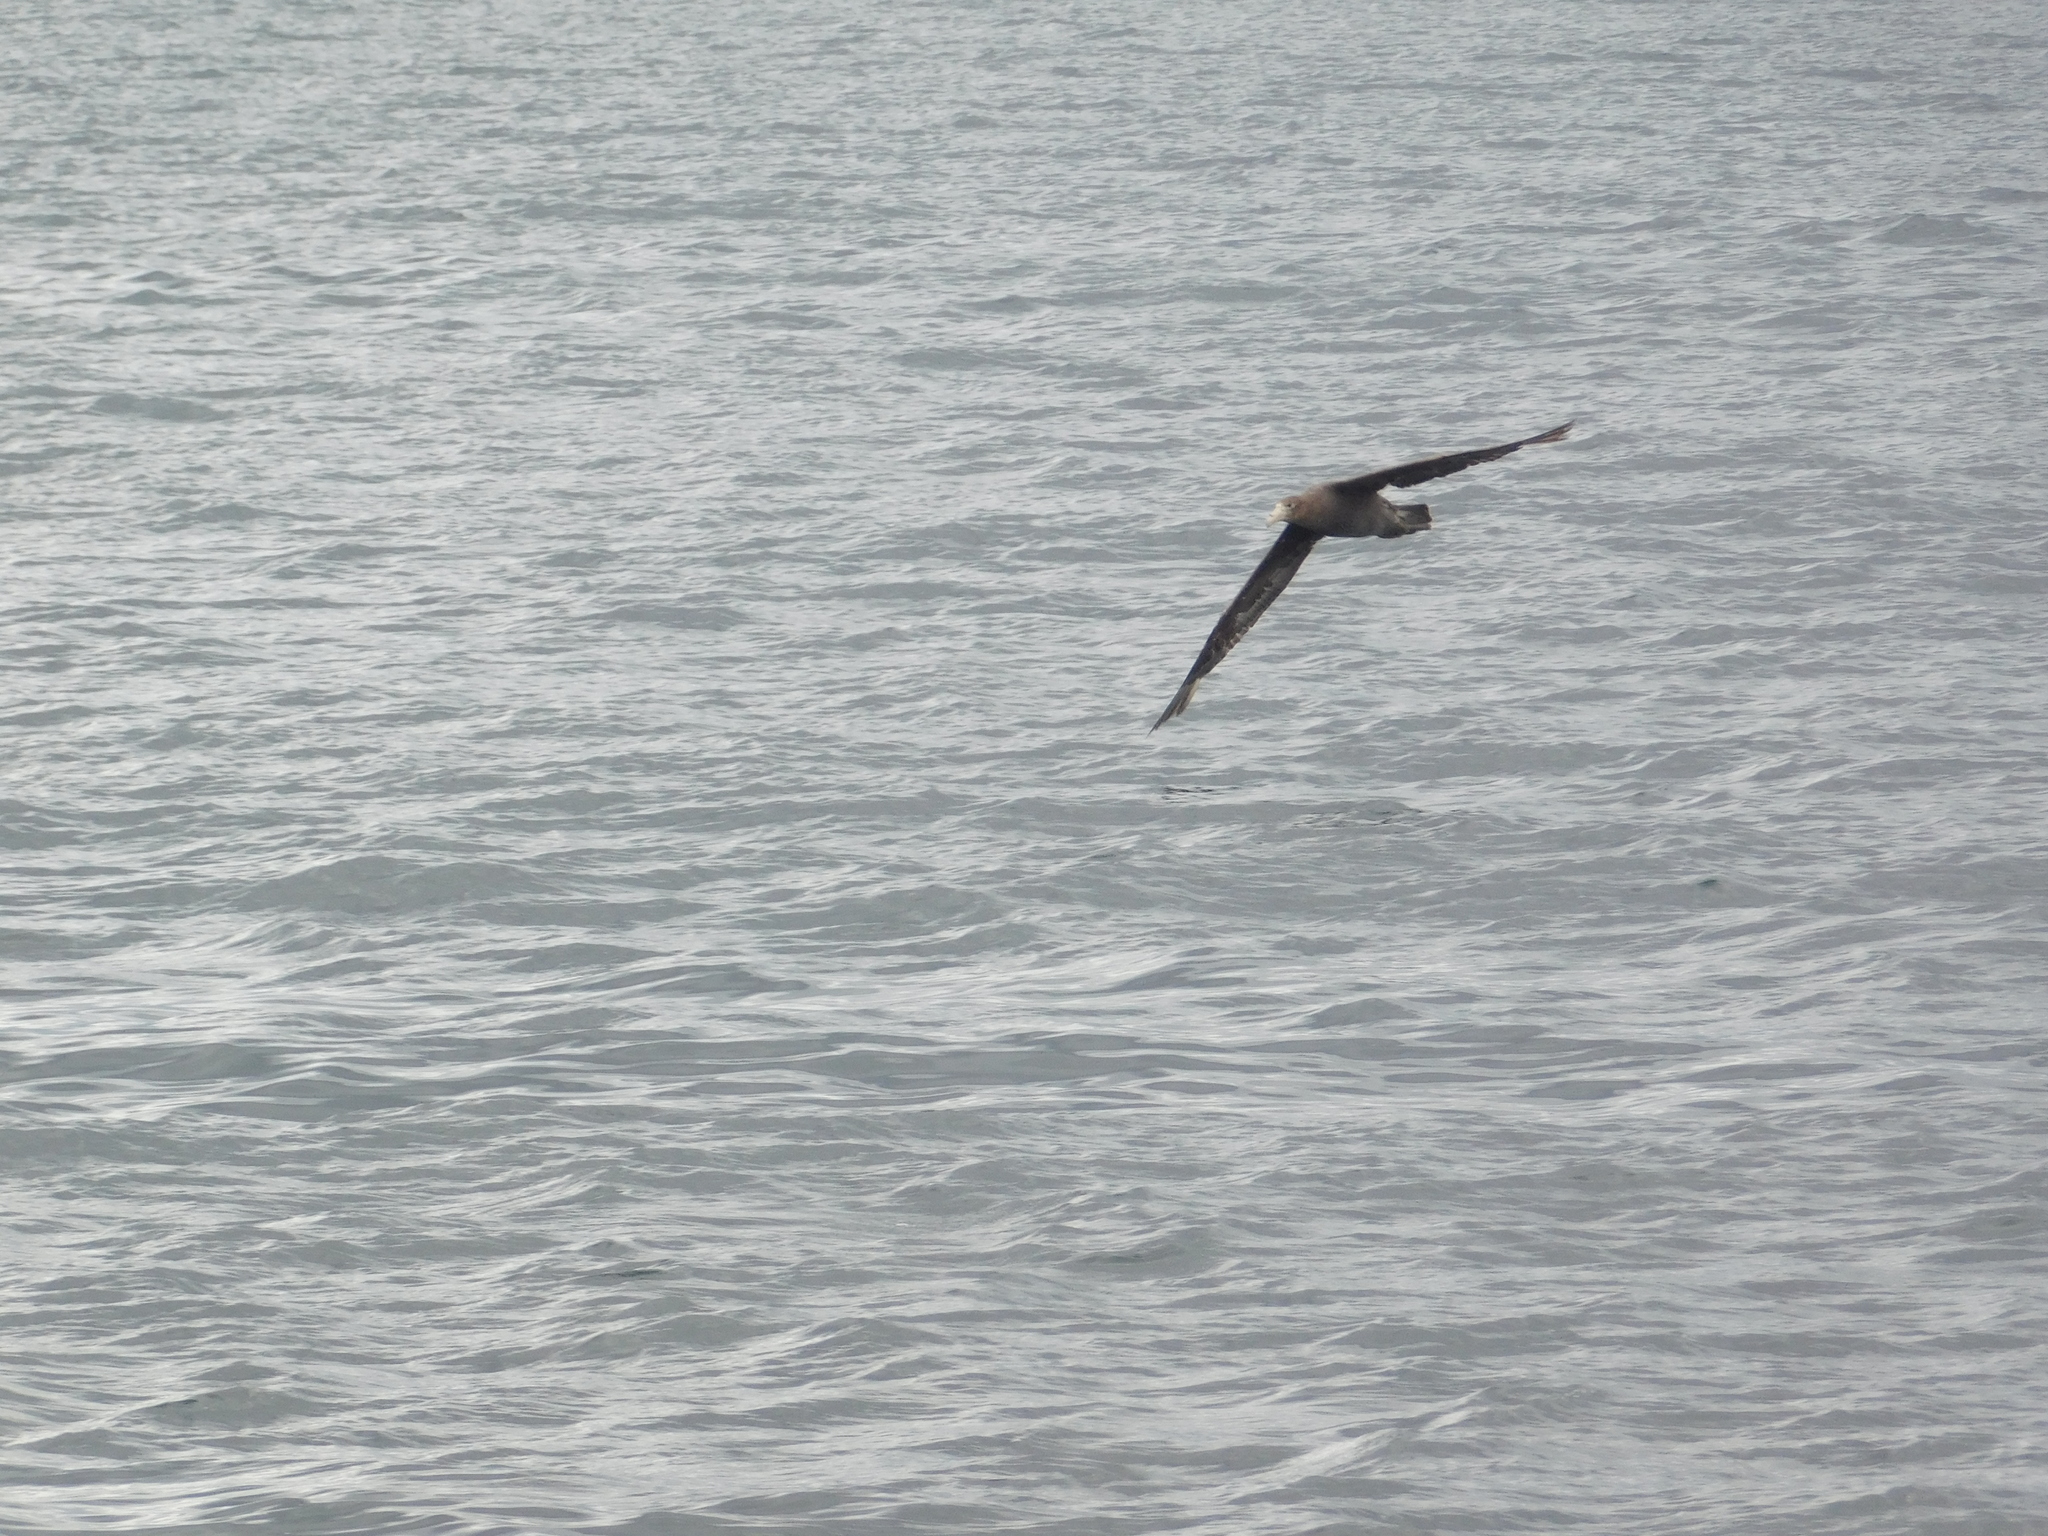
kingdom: Animalia
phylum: Chordata
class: Aves
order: Procellariiformes
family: Procellariidae
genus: Macronectes
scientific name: Macronectes giganteus
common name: Southern giant petrel
